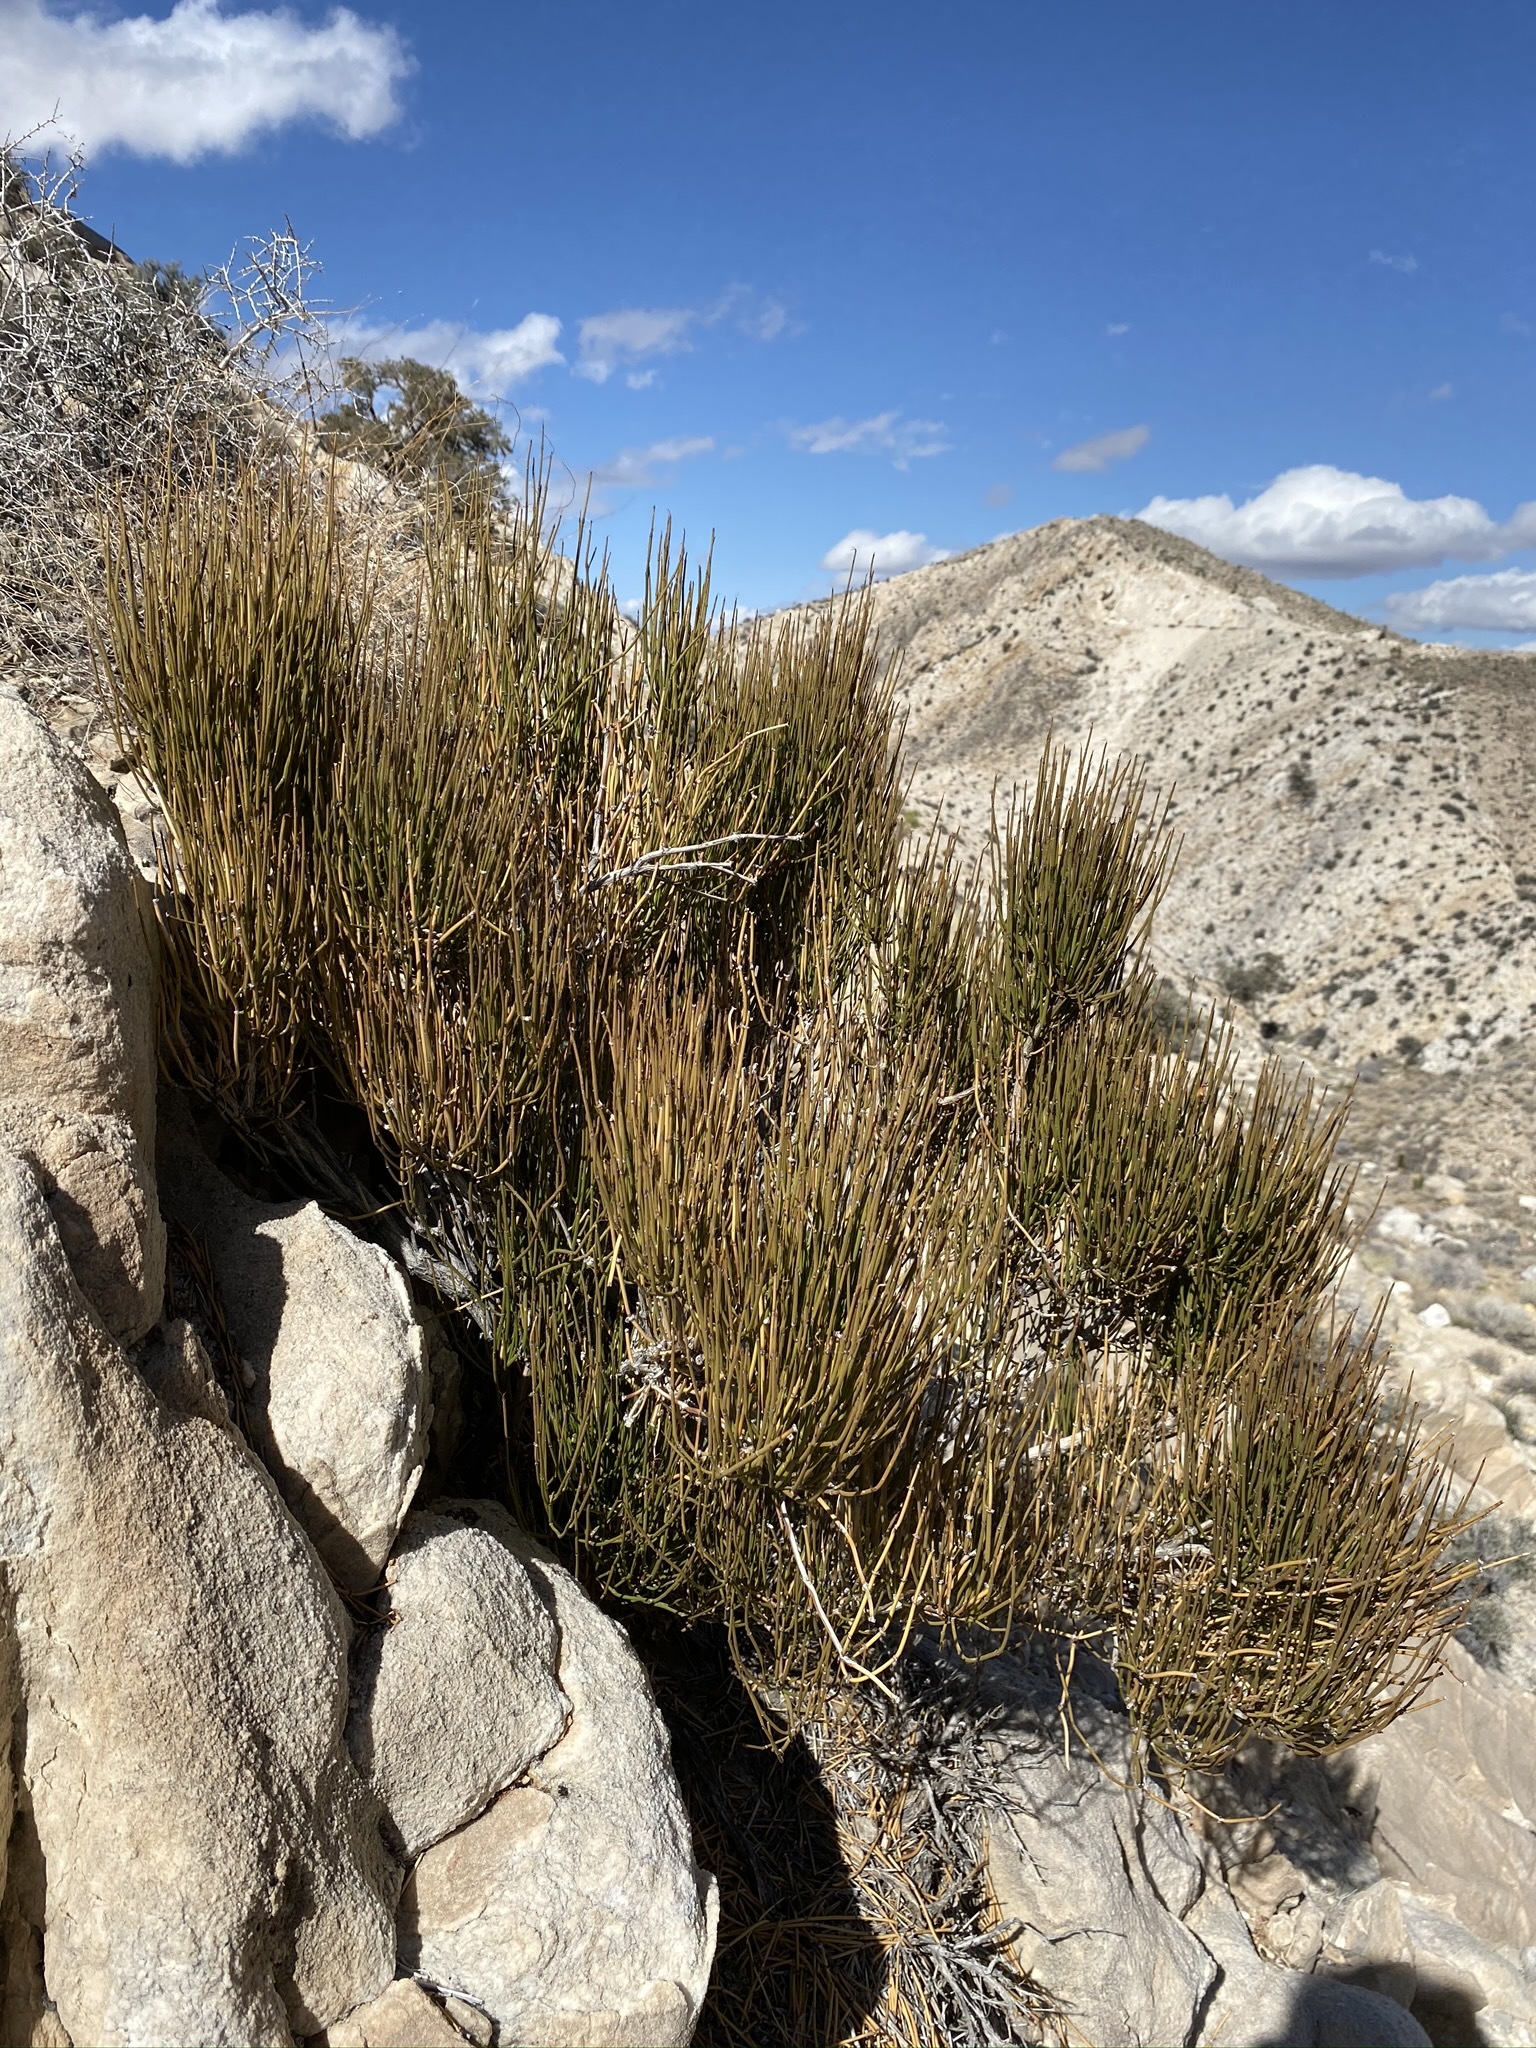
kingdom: Plantae
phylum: Tracheophyta
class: Gnetopsida
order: Ephedrales
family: Ephedraceae
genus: Ephedra
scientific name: Ephedra viridis
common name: Green ephedra
